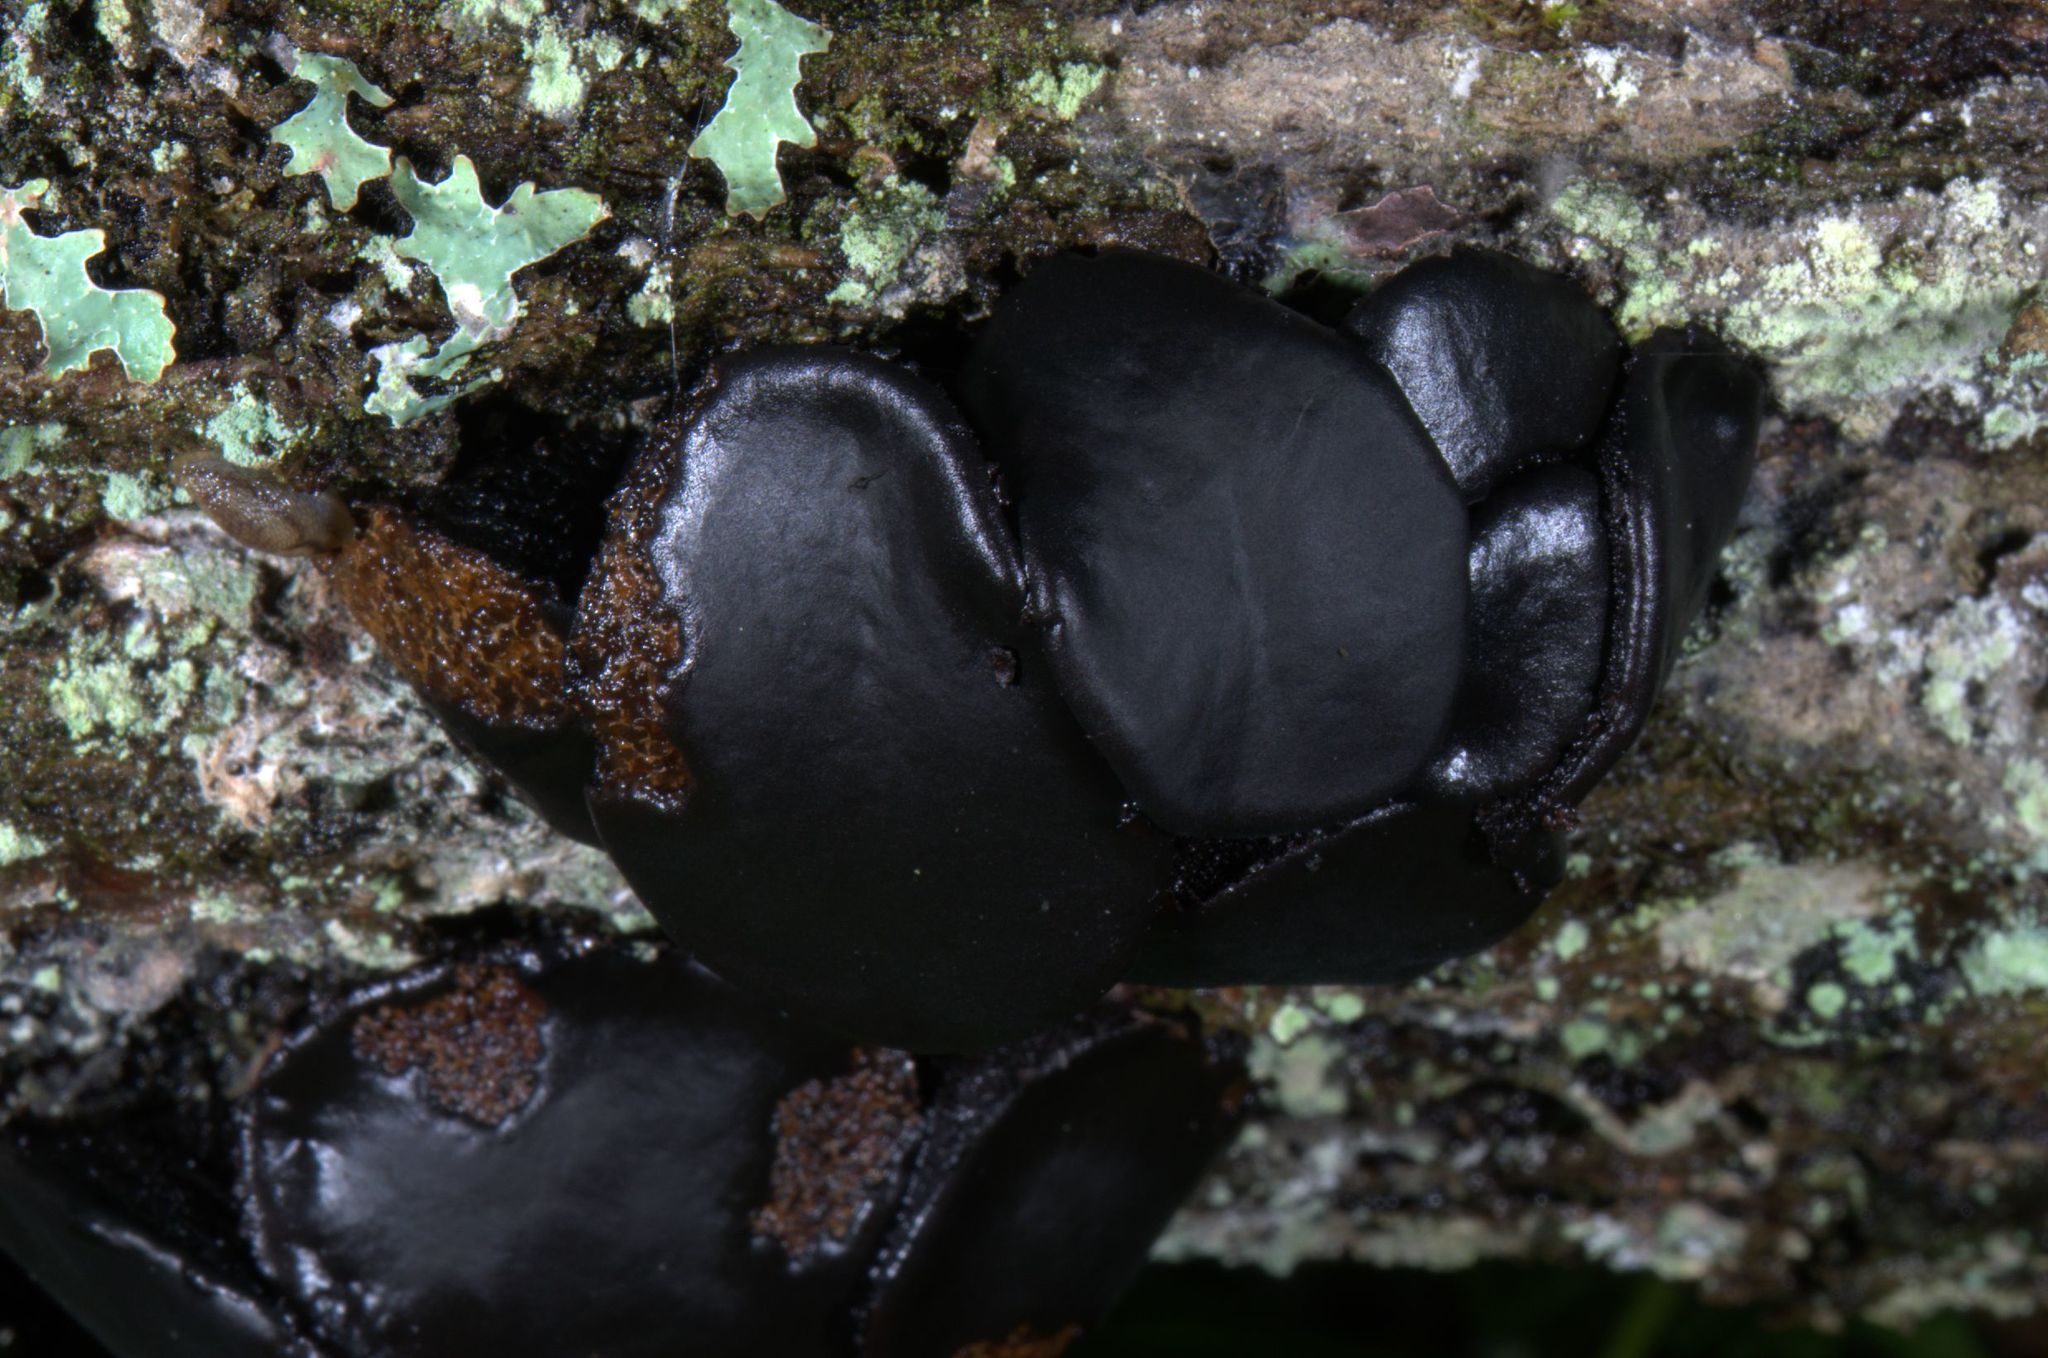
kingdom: Fungi
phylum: Ascomycota
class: Leotiomycetes
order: Phacidiales
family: Phacidiaceae
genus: Bulgaria
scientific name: Bulgaria inquinans
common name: Black bulgar
